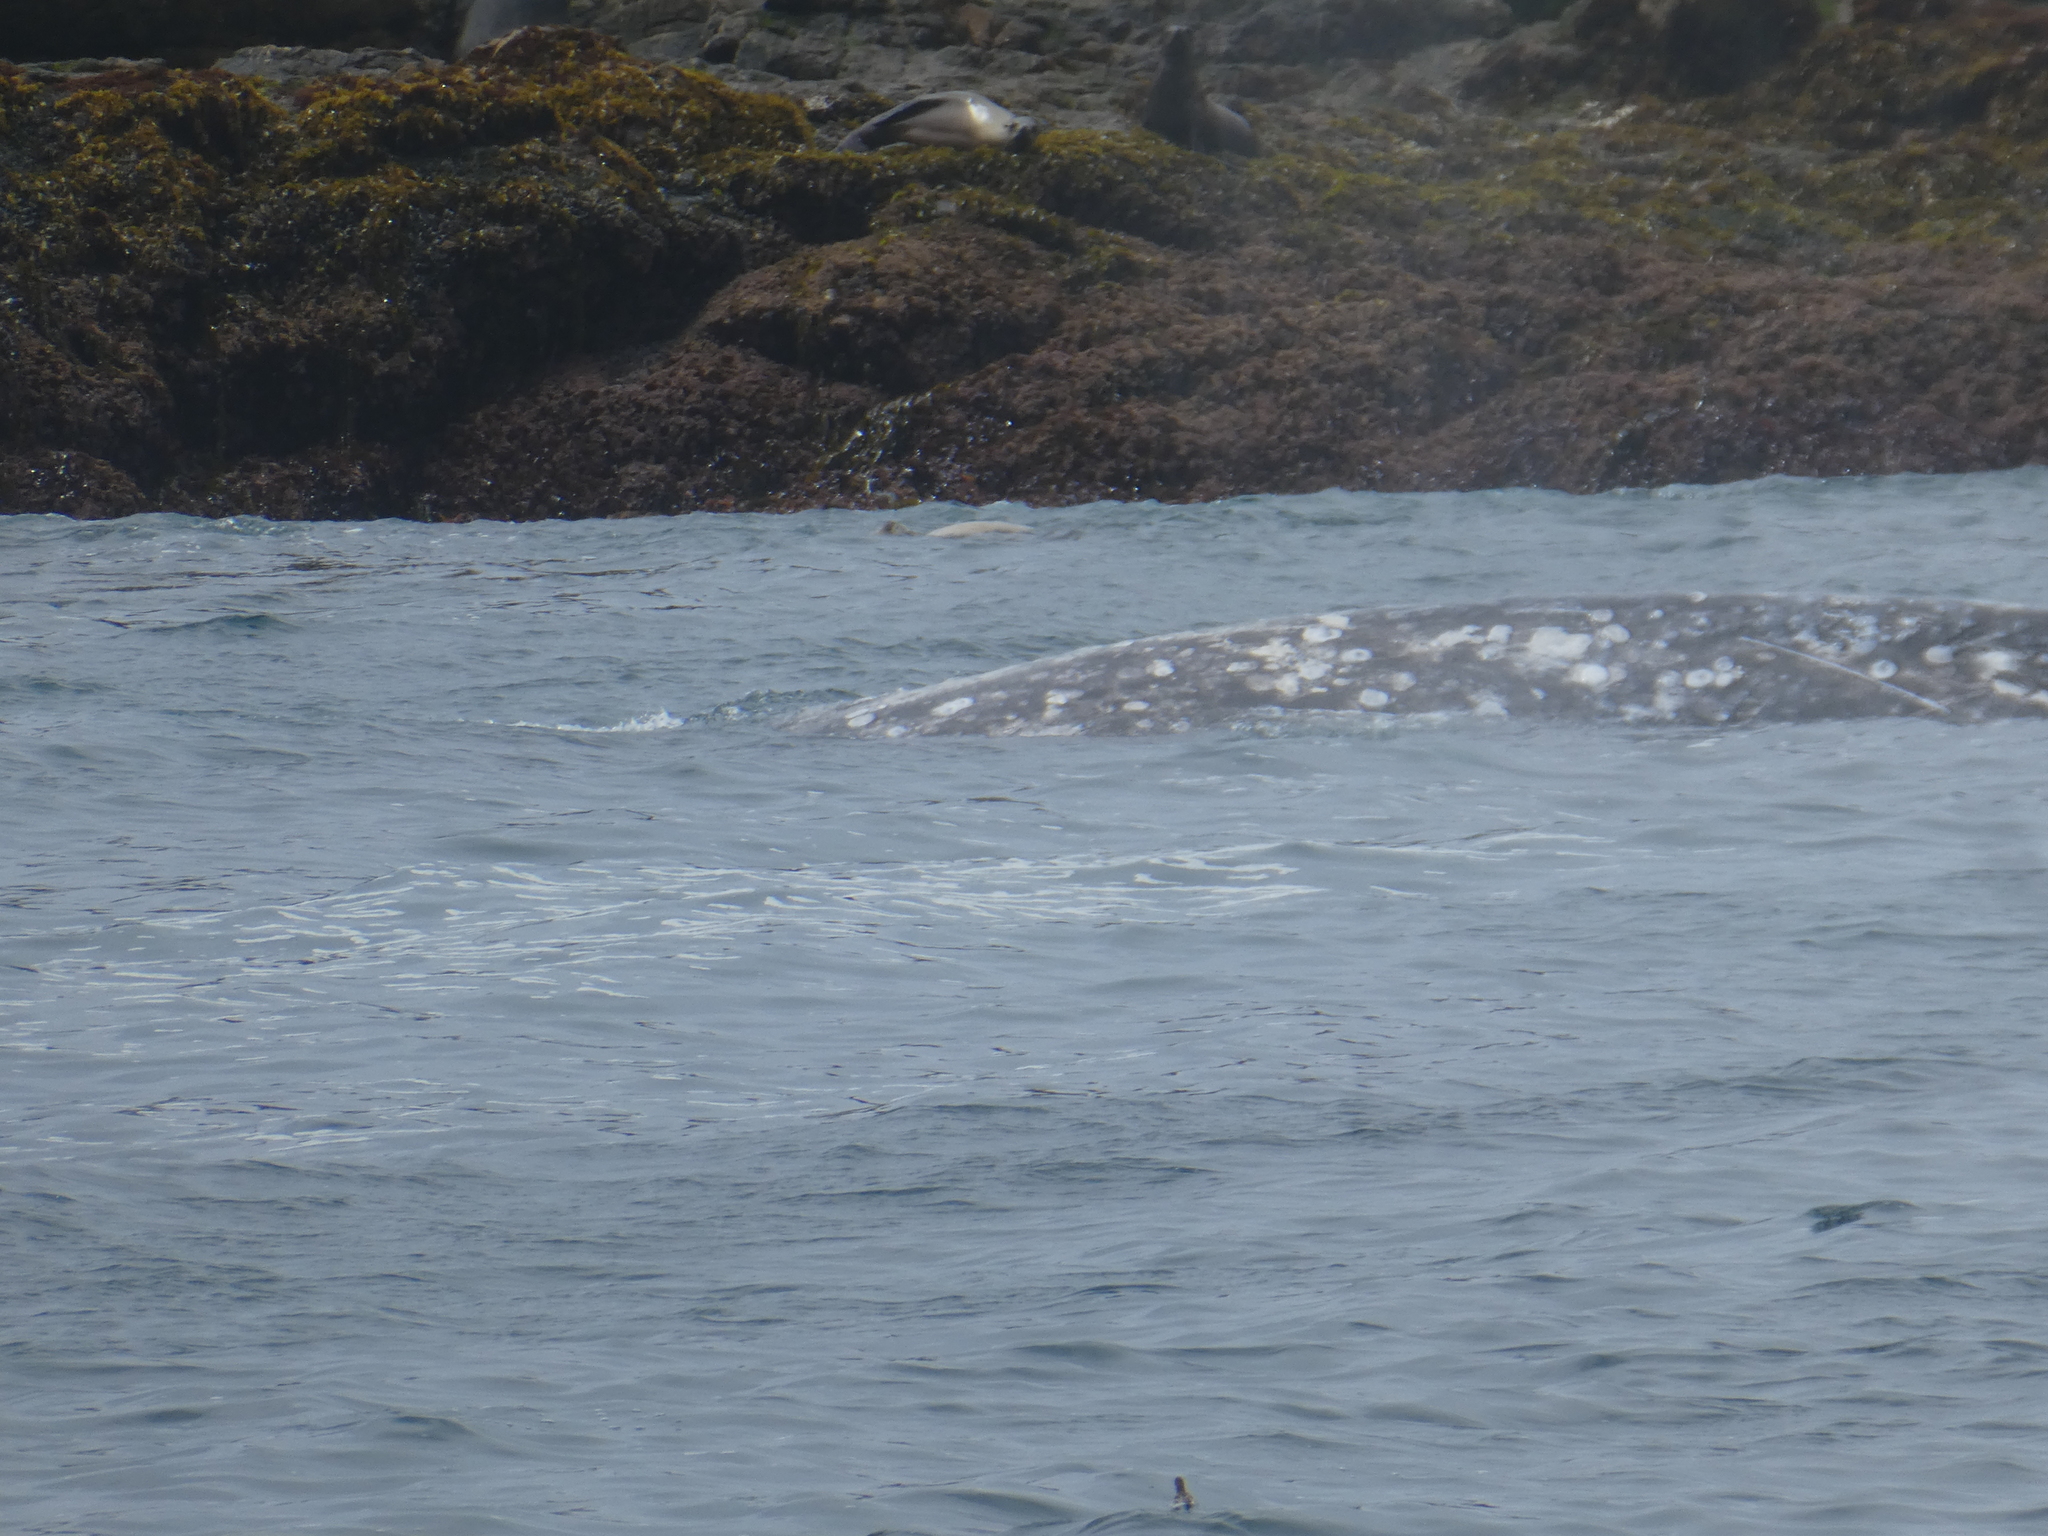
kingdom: Animalia
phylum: Chordata
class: Mammalia
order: Cetacea
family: Eschrichtiidae
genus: Eschrichtius
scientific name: Eschrichtius robustus
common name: Gray whale
